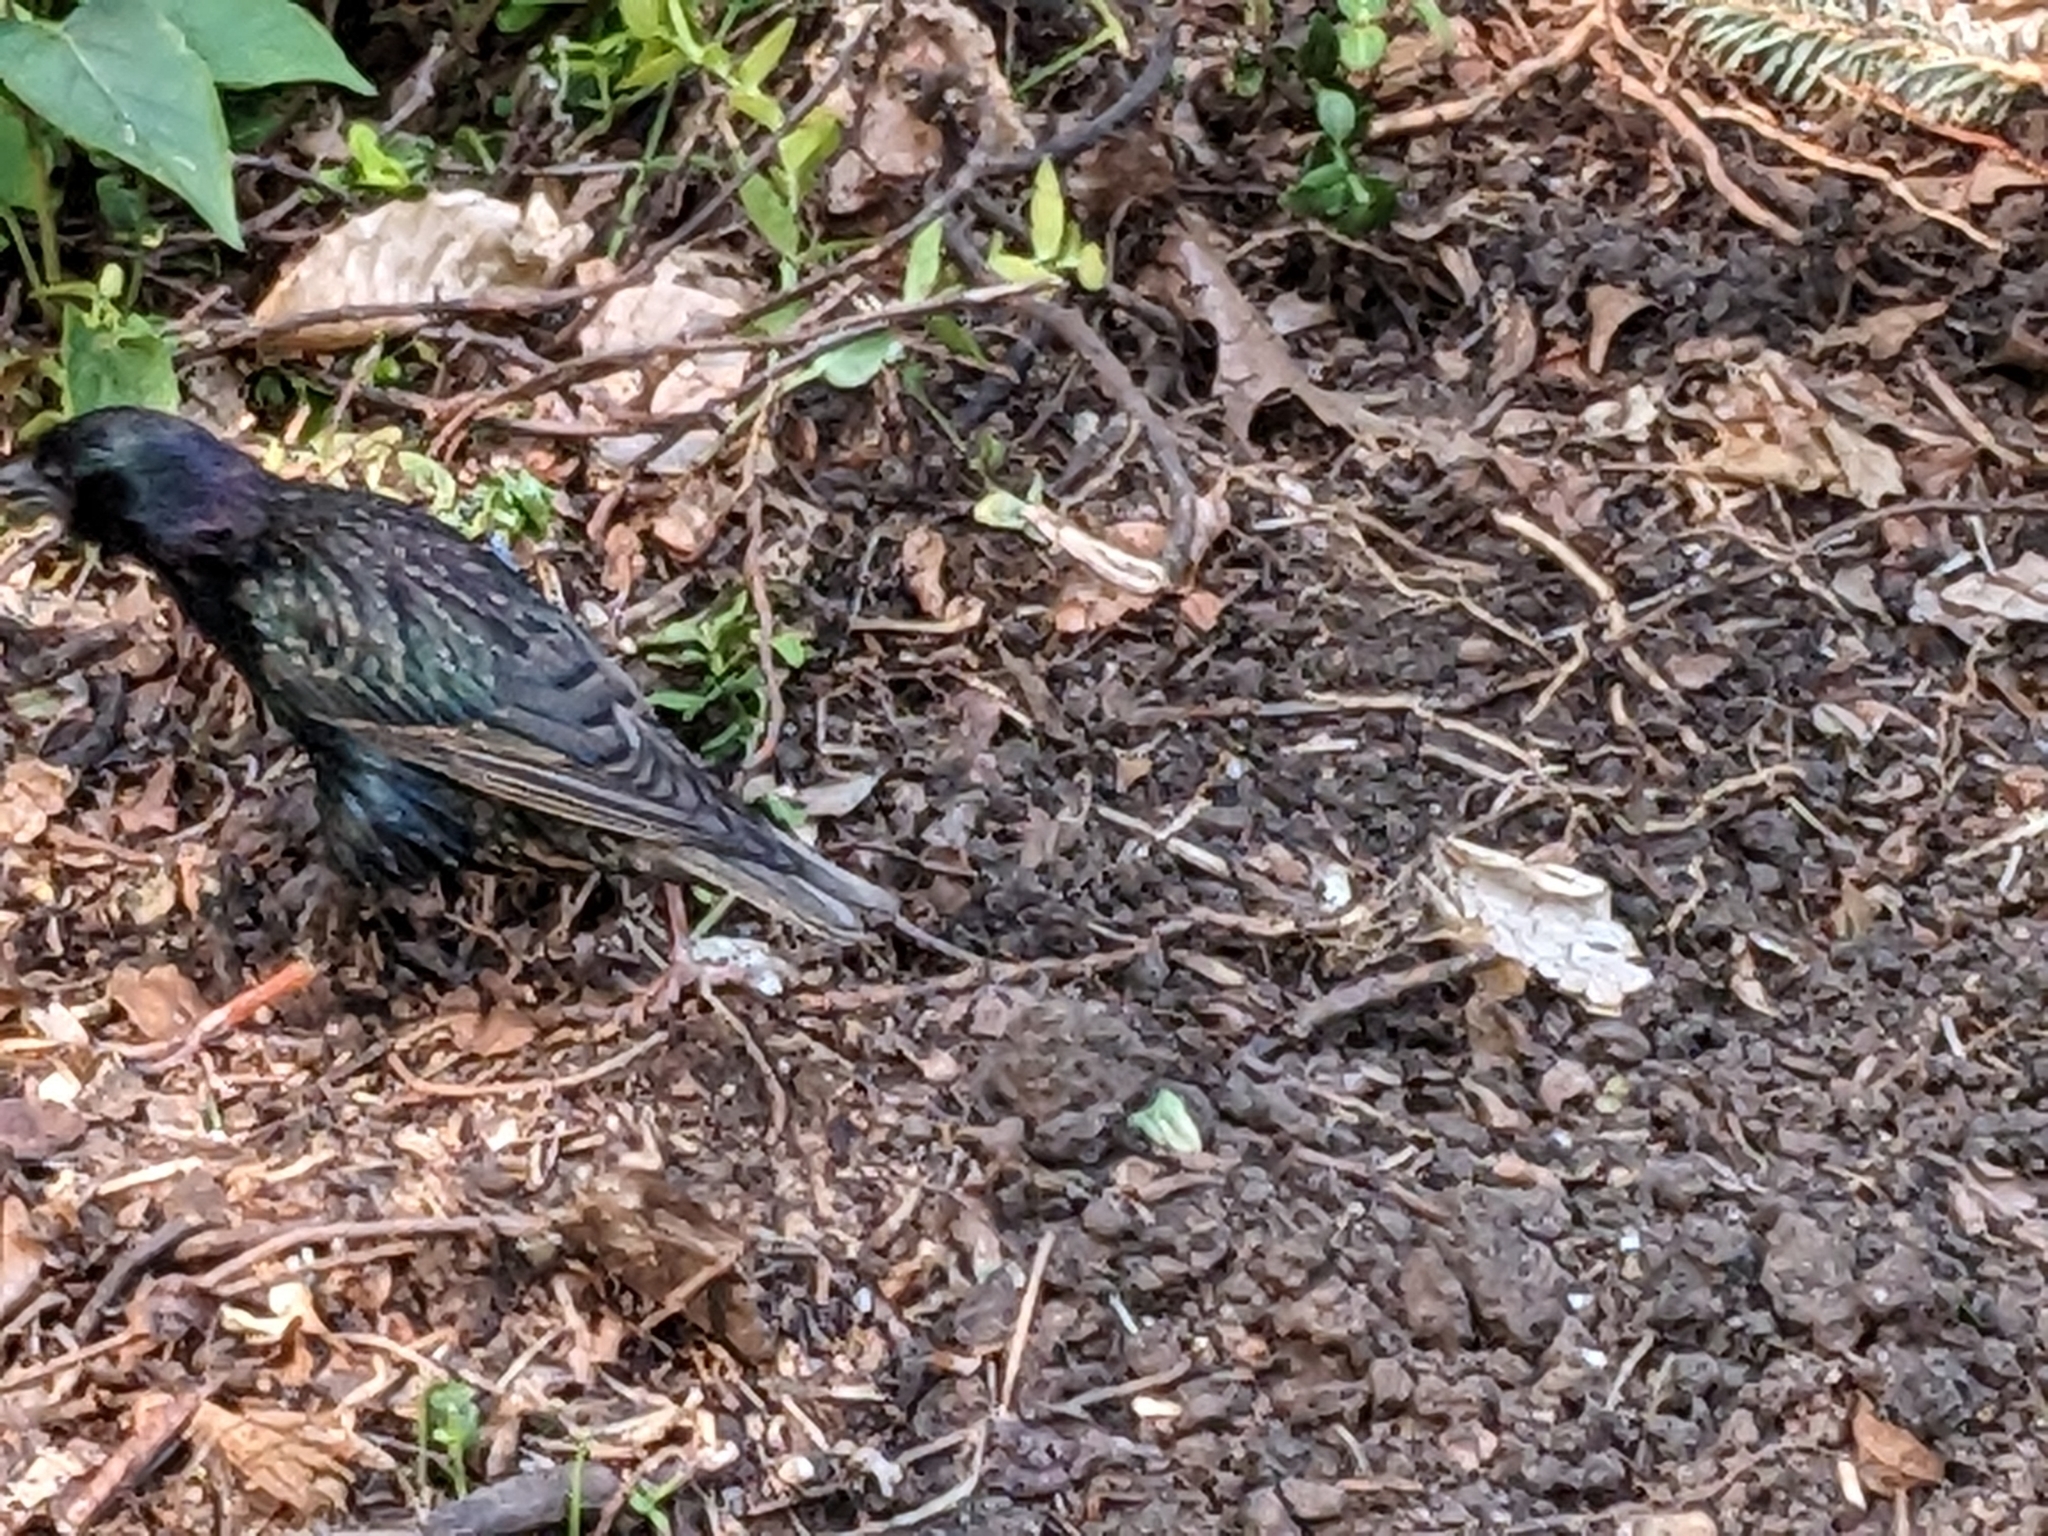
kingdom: Animalia
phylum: Chordata
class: Aves
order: Passeriformes
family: Sturnidae
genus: Sturnus
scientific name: Sturnus vulgaris
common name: Common starling
